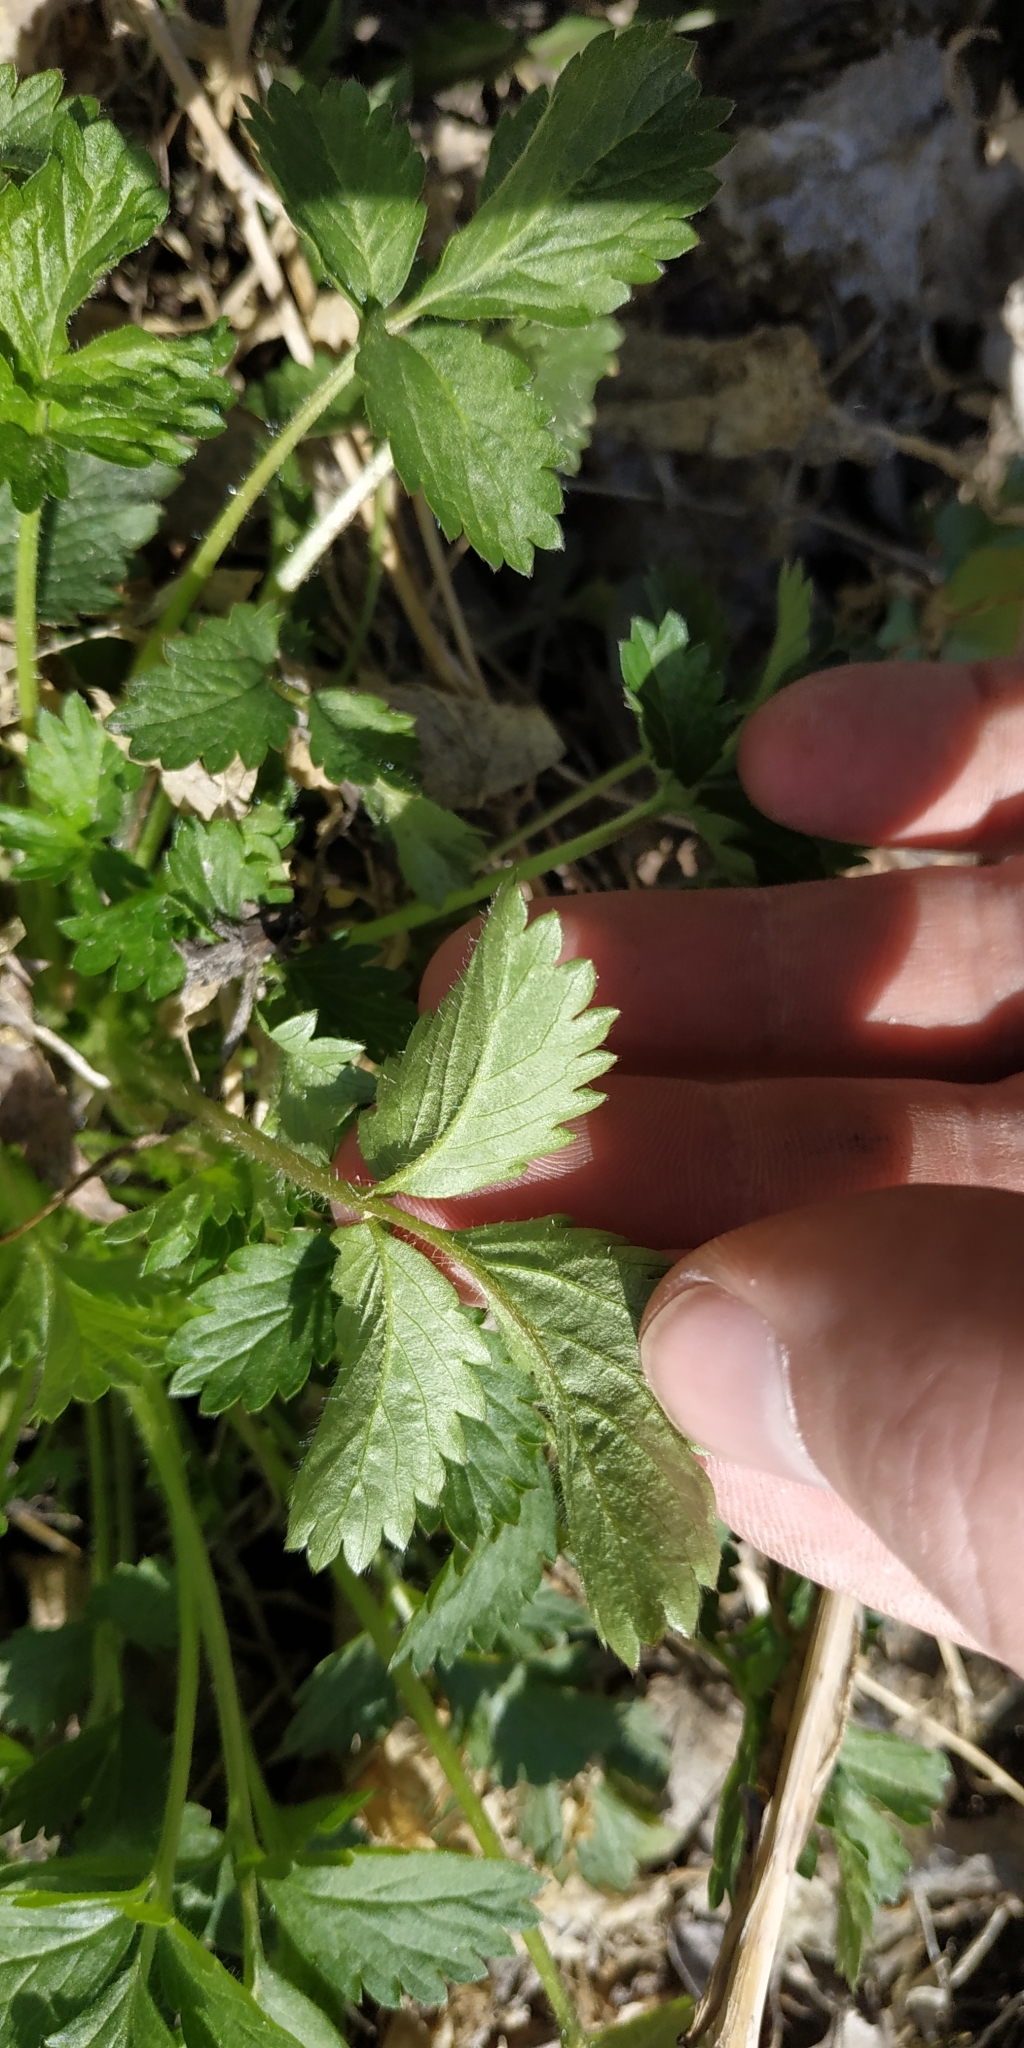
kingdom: Plantae
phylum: Tracheophyta
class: Magnoliopsida
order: Rosales
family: Rosaceae
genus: Potentilla
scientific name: Potentilla norvegica
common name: Ternate-leaved cinquefoil
